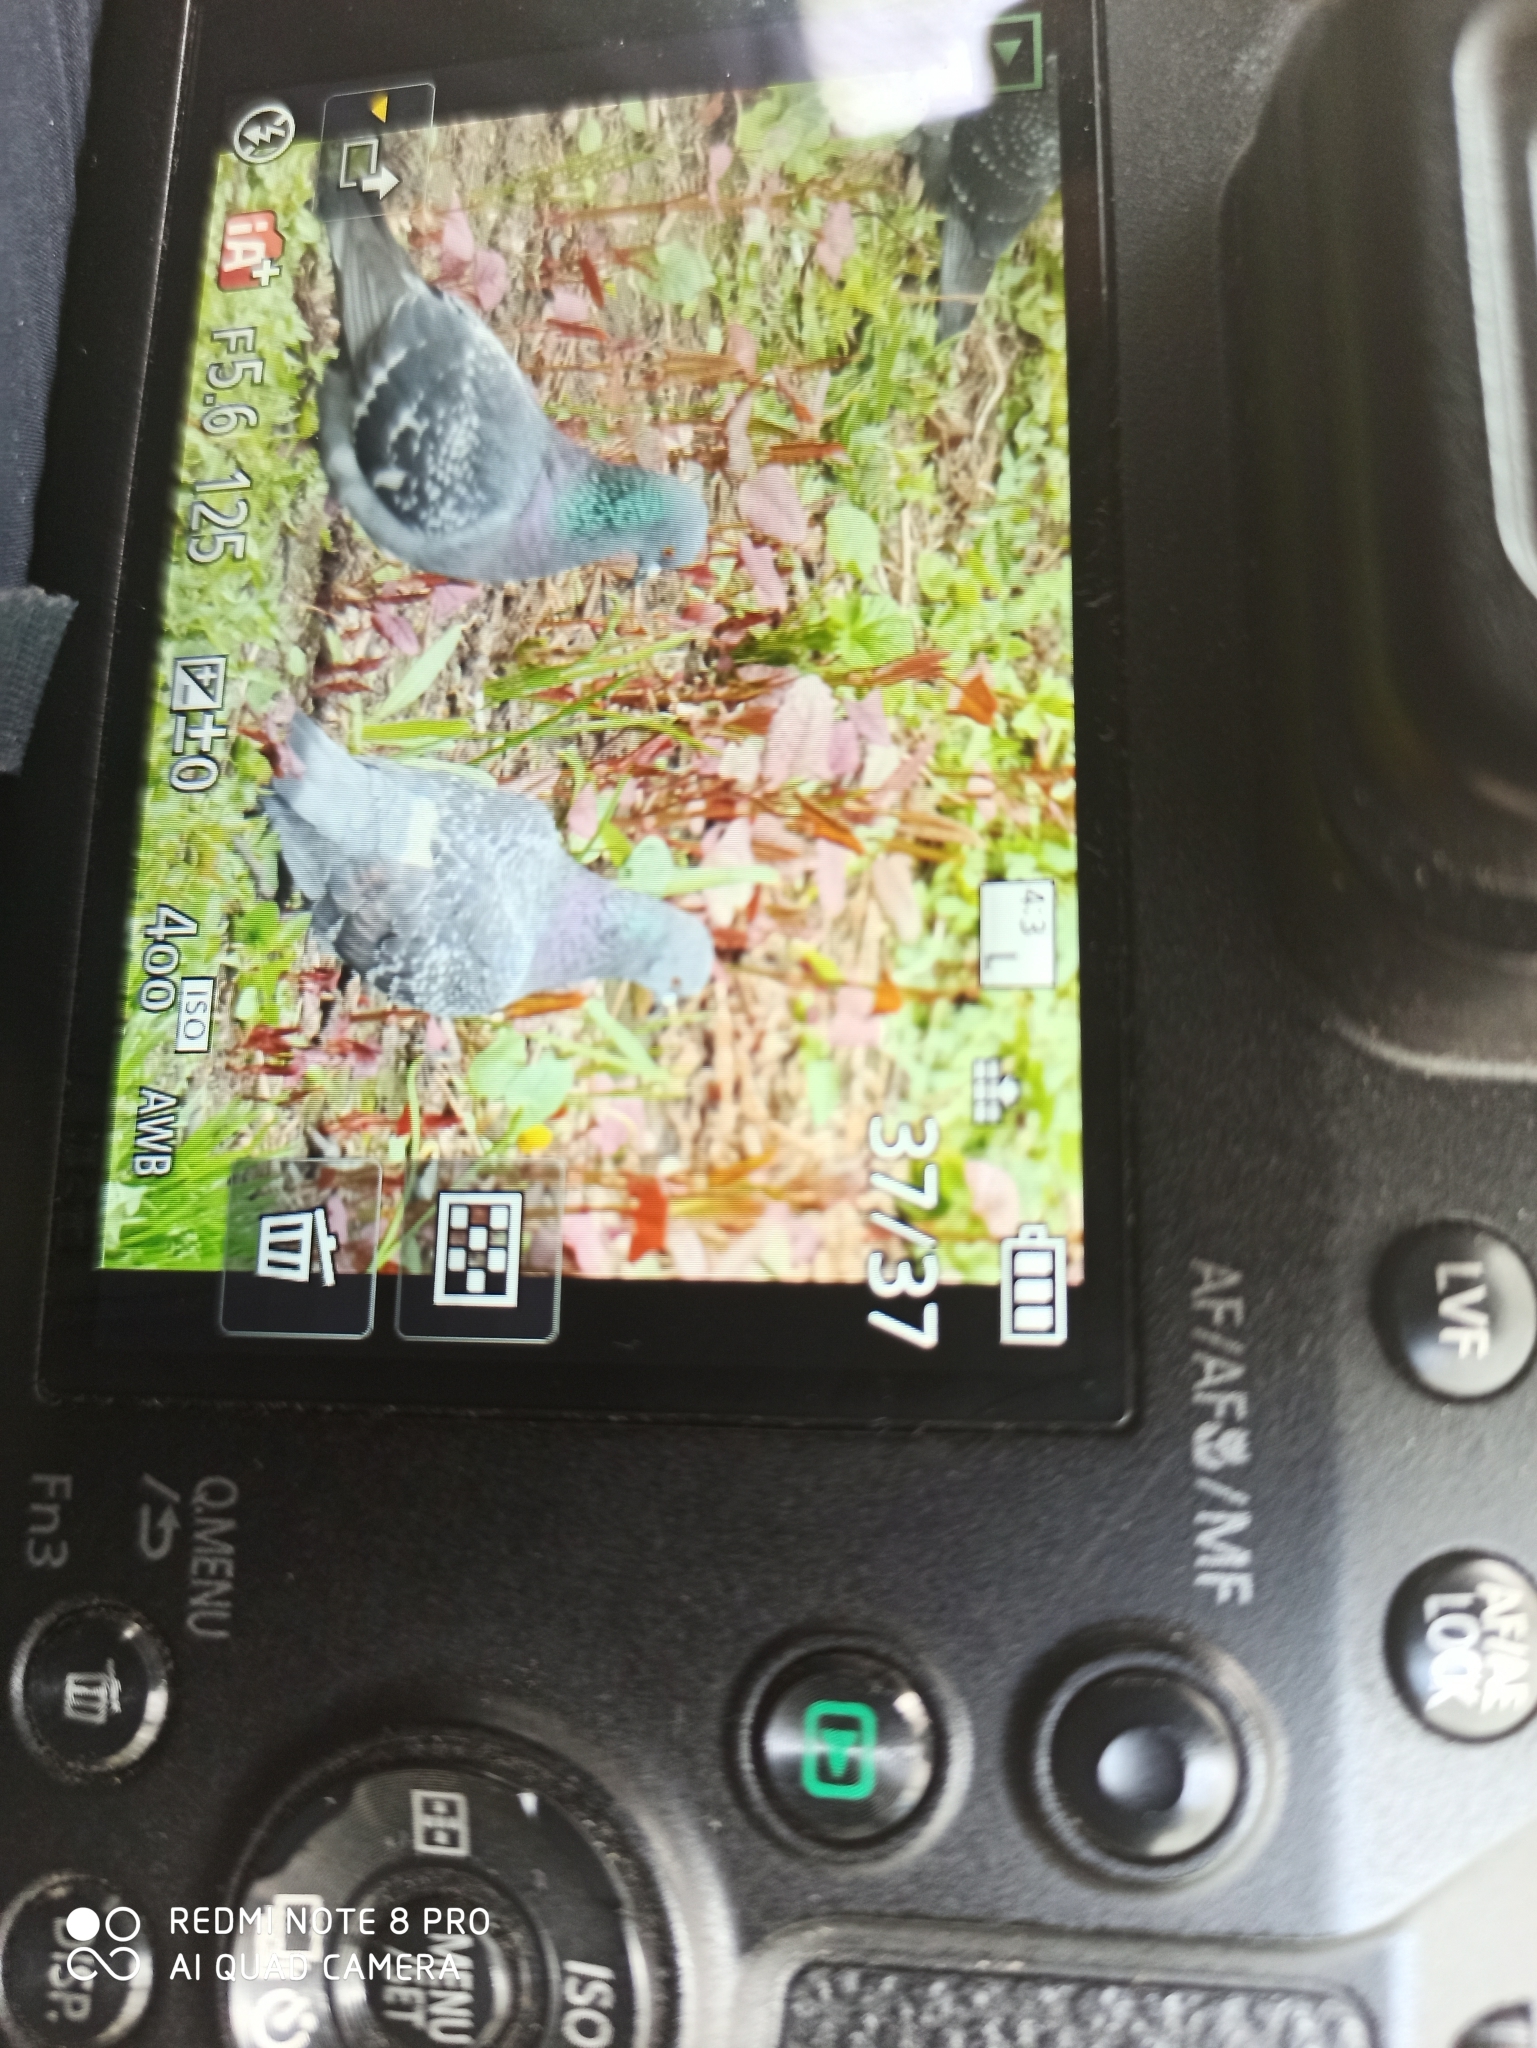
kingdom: Animalia
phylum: Chordata
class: Aves
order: Columbiformes
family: Columbidae
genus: Columba
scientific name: Columba livia
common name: Rock pigeon
